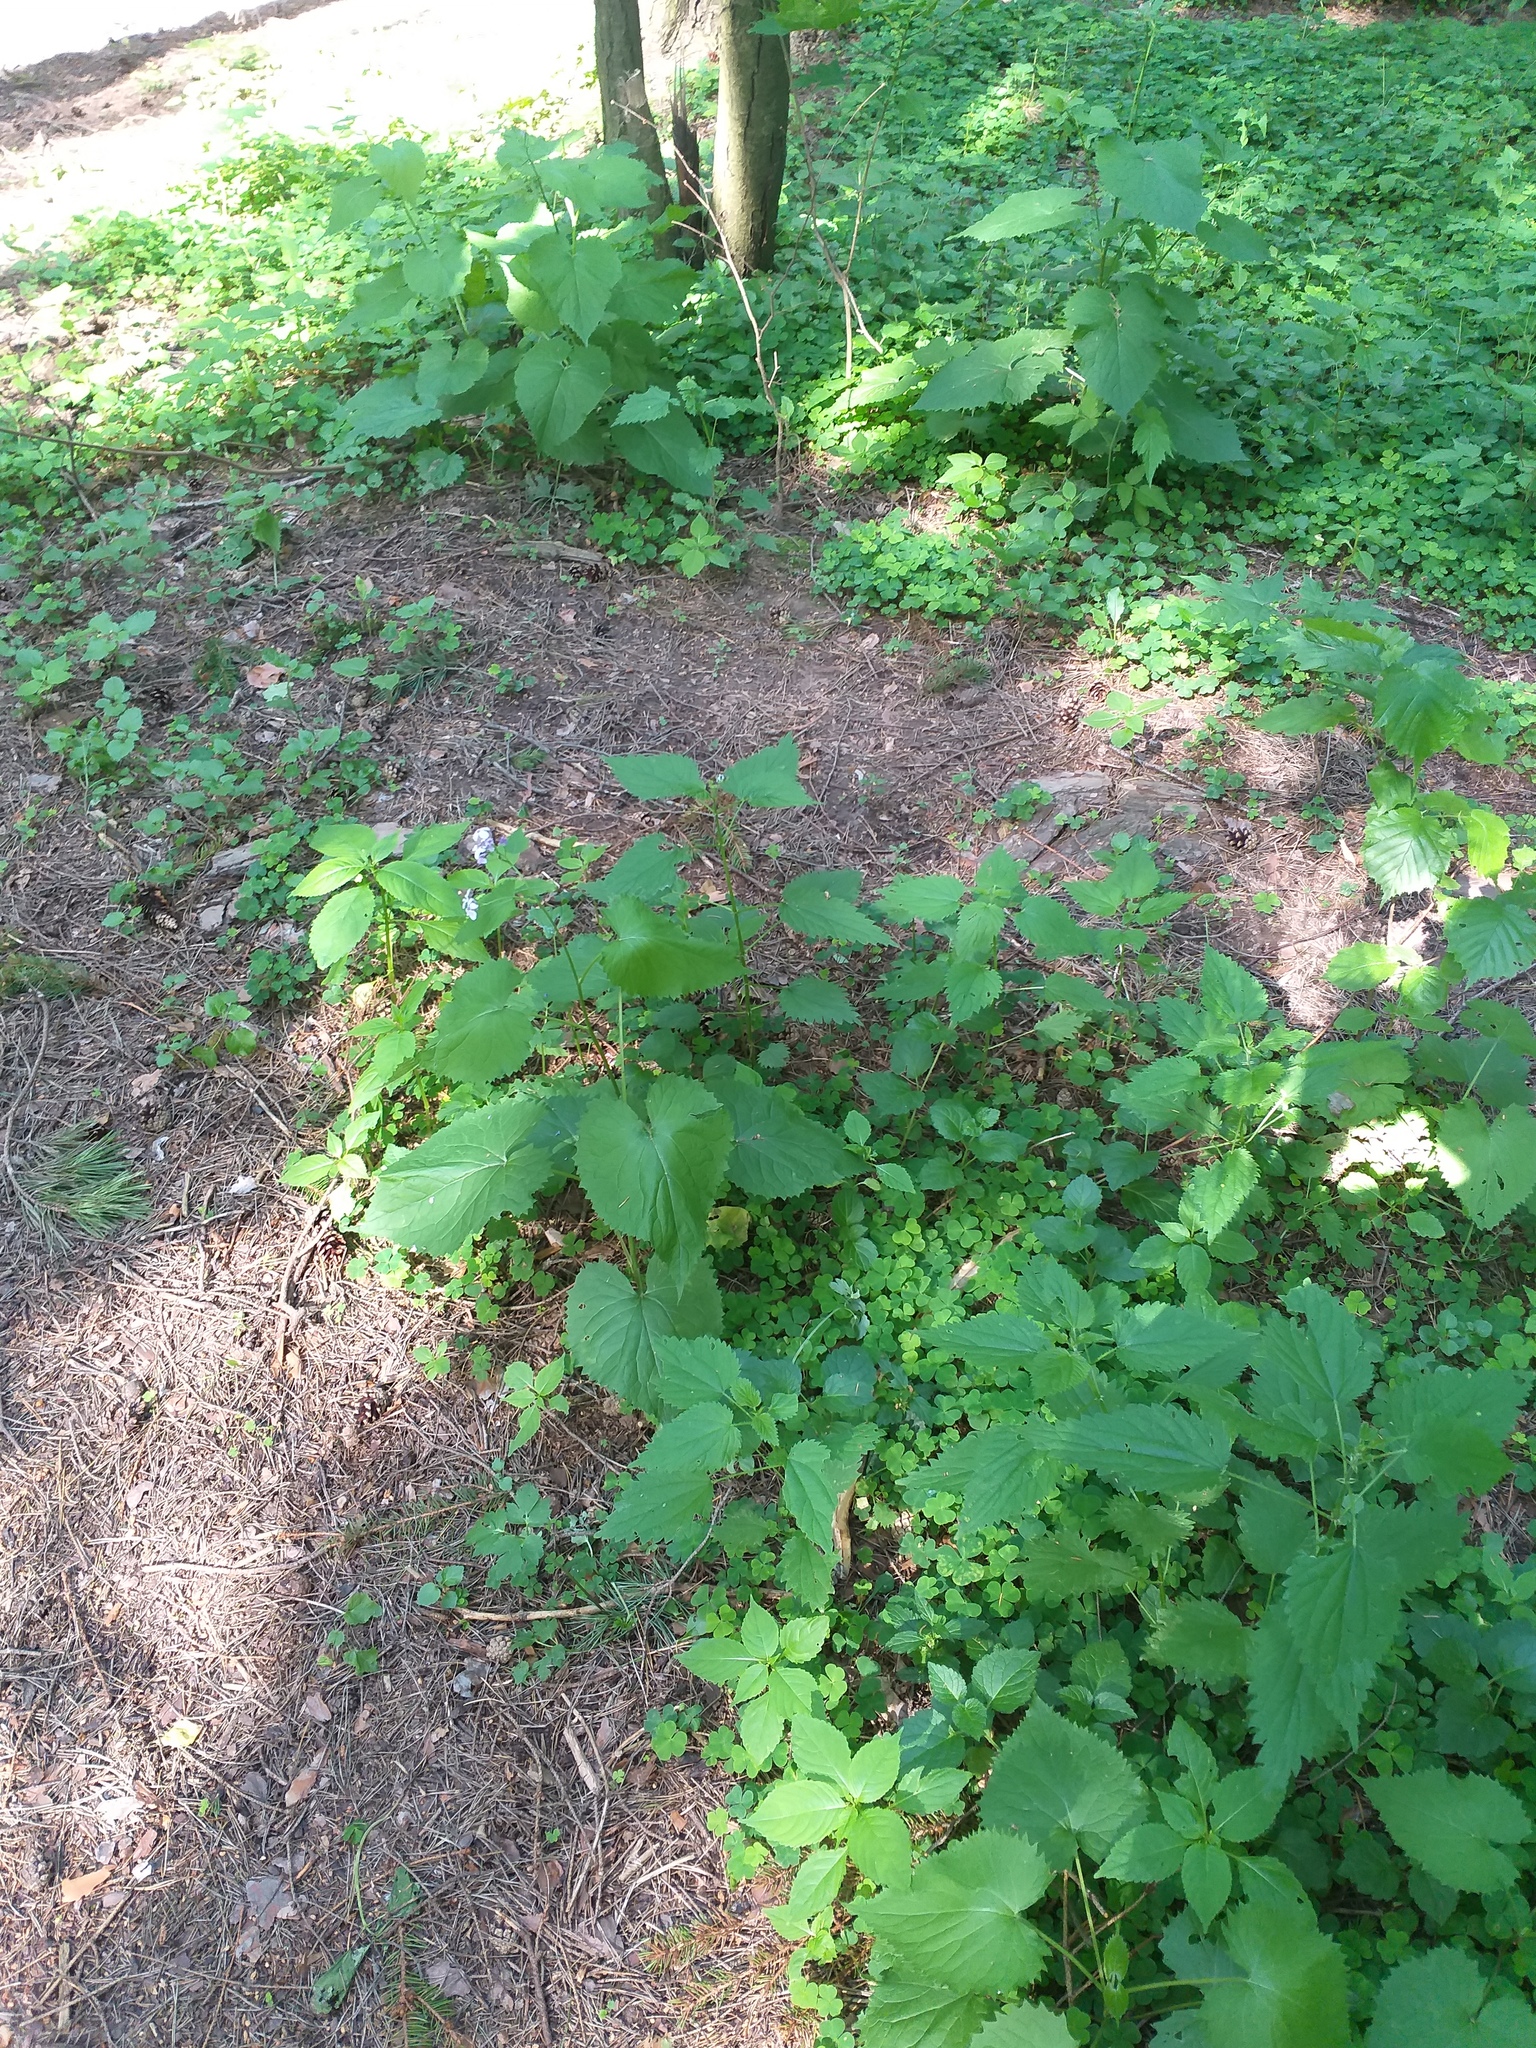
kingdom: Plantae
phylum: Tracheophyta
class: Magnoliopsida
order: Brassicales
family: Brassicaceae
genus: Lunaria
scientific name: Lunaria rediviva
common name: Perennial honesty
